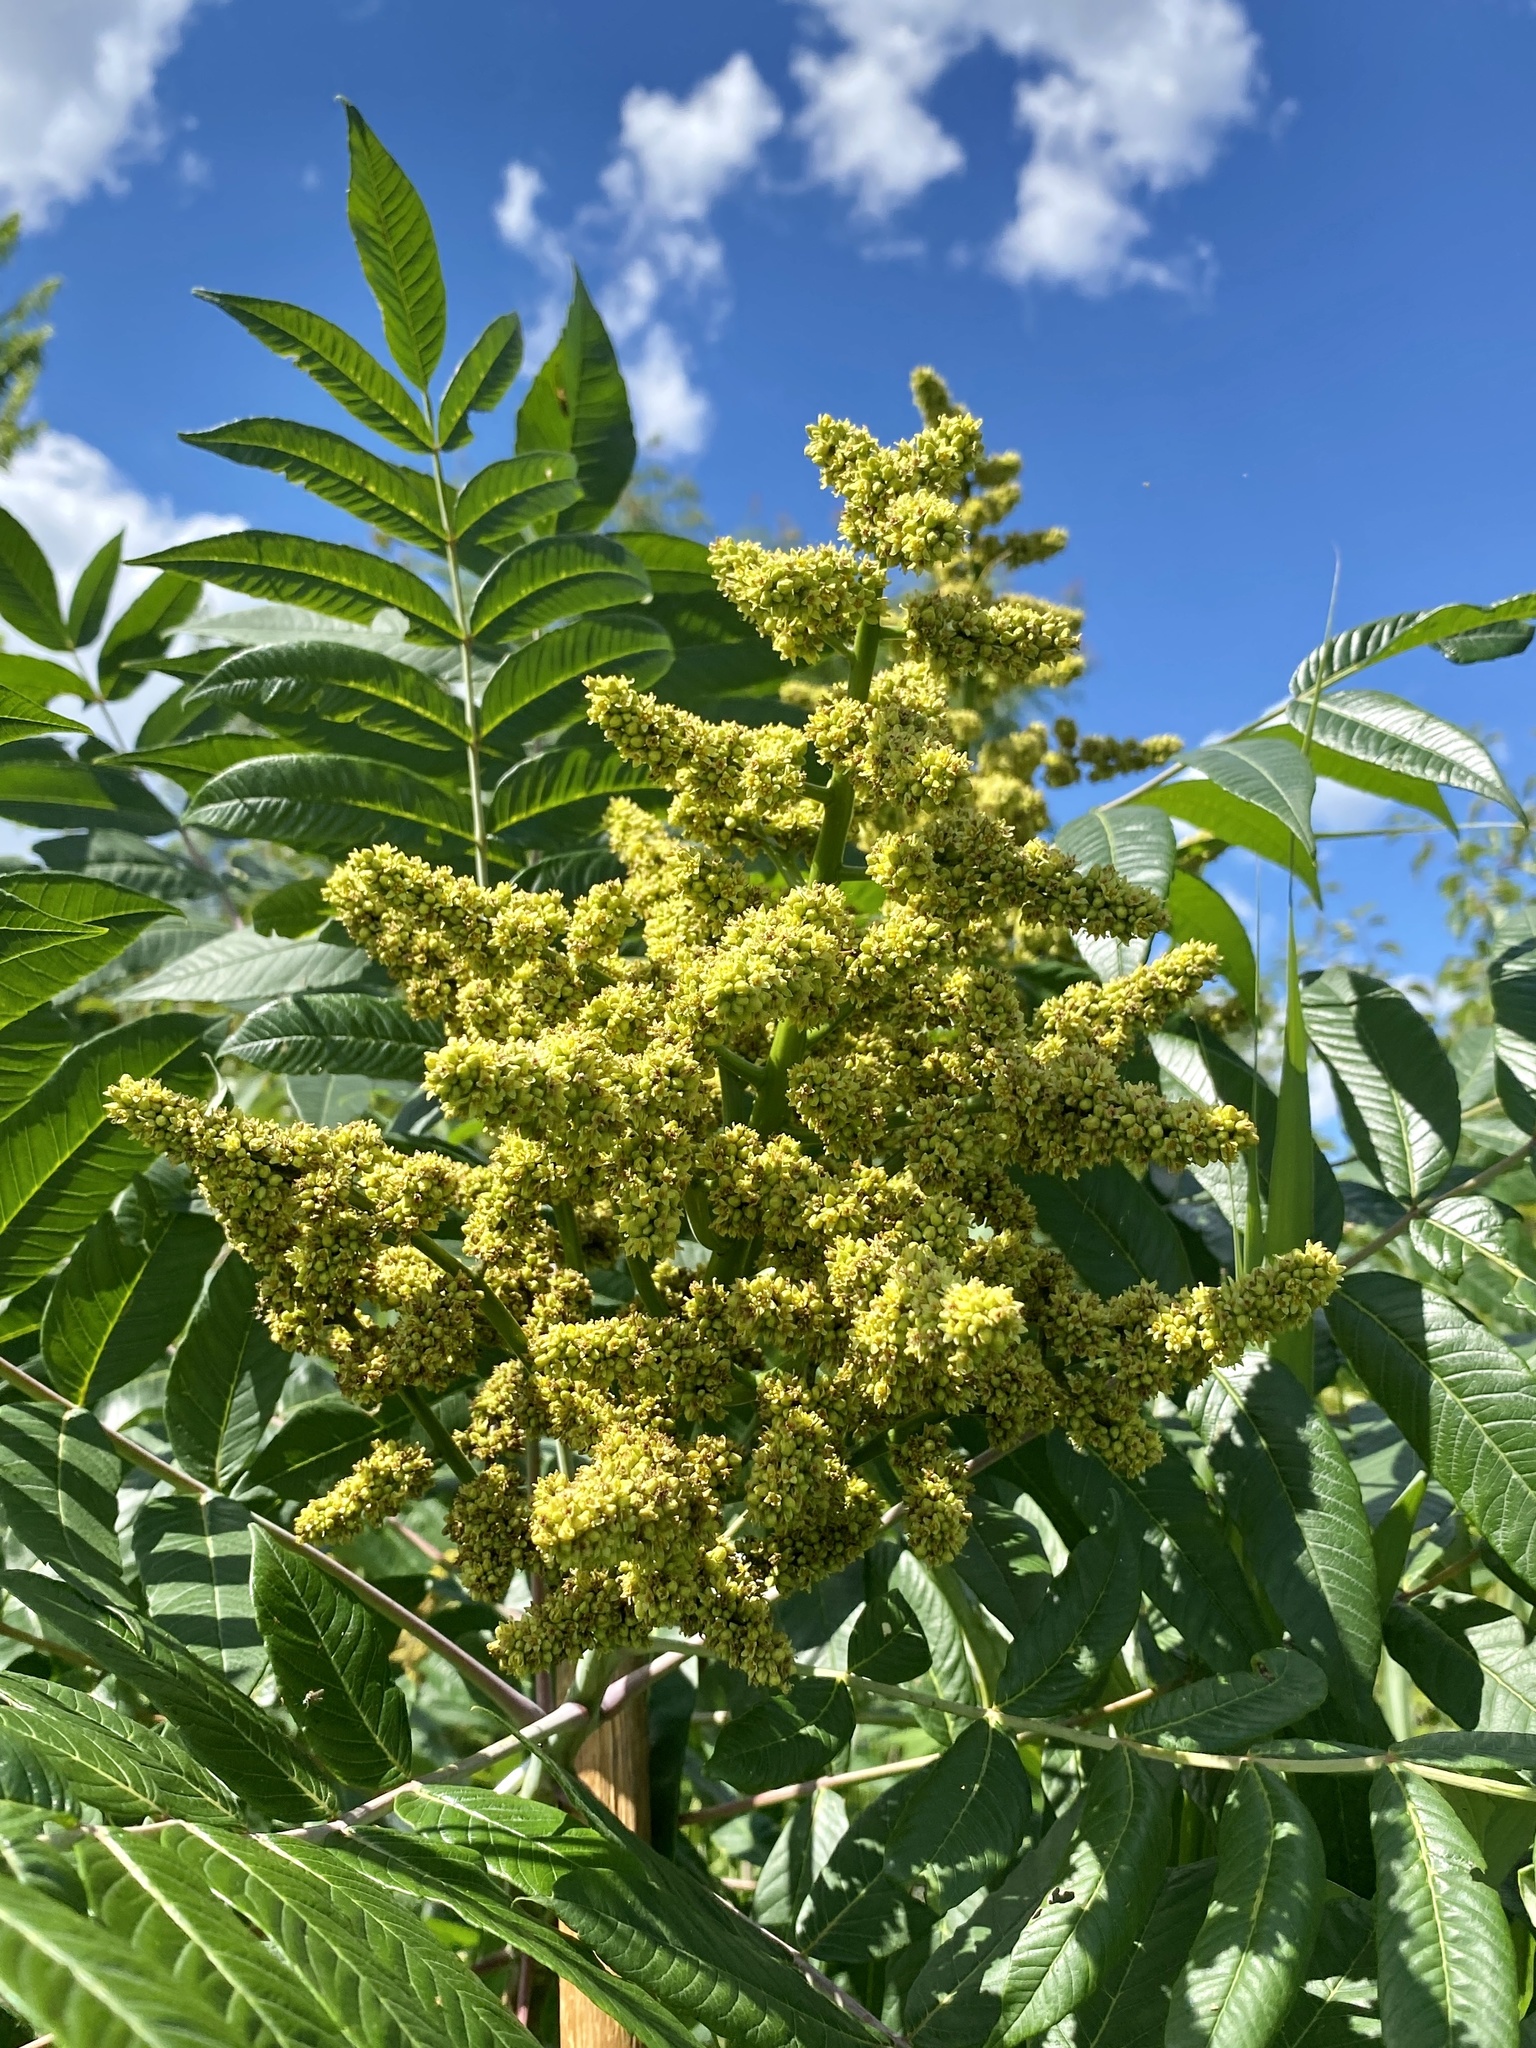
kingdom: Plantae
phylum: Tracheophyta
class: Magnoliopsida
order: Sapindales
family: Anacardiaceae
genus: Rhus
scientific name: Rhus glabra
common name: Scarlet sumac
